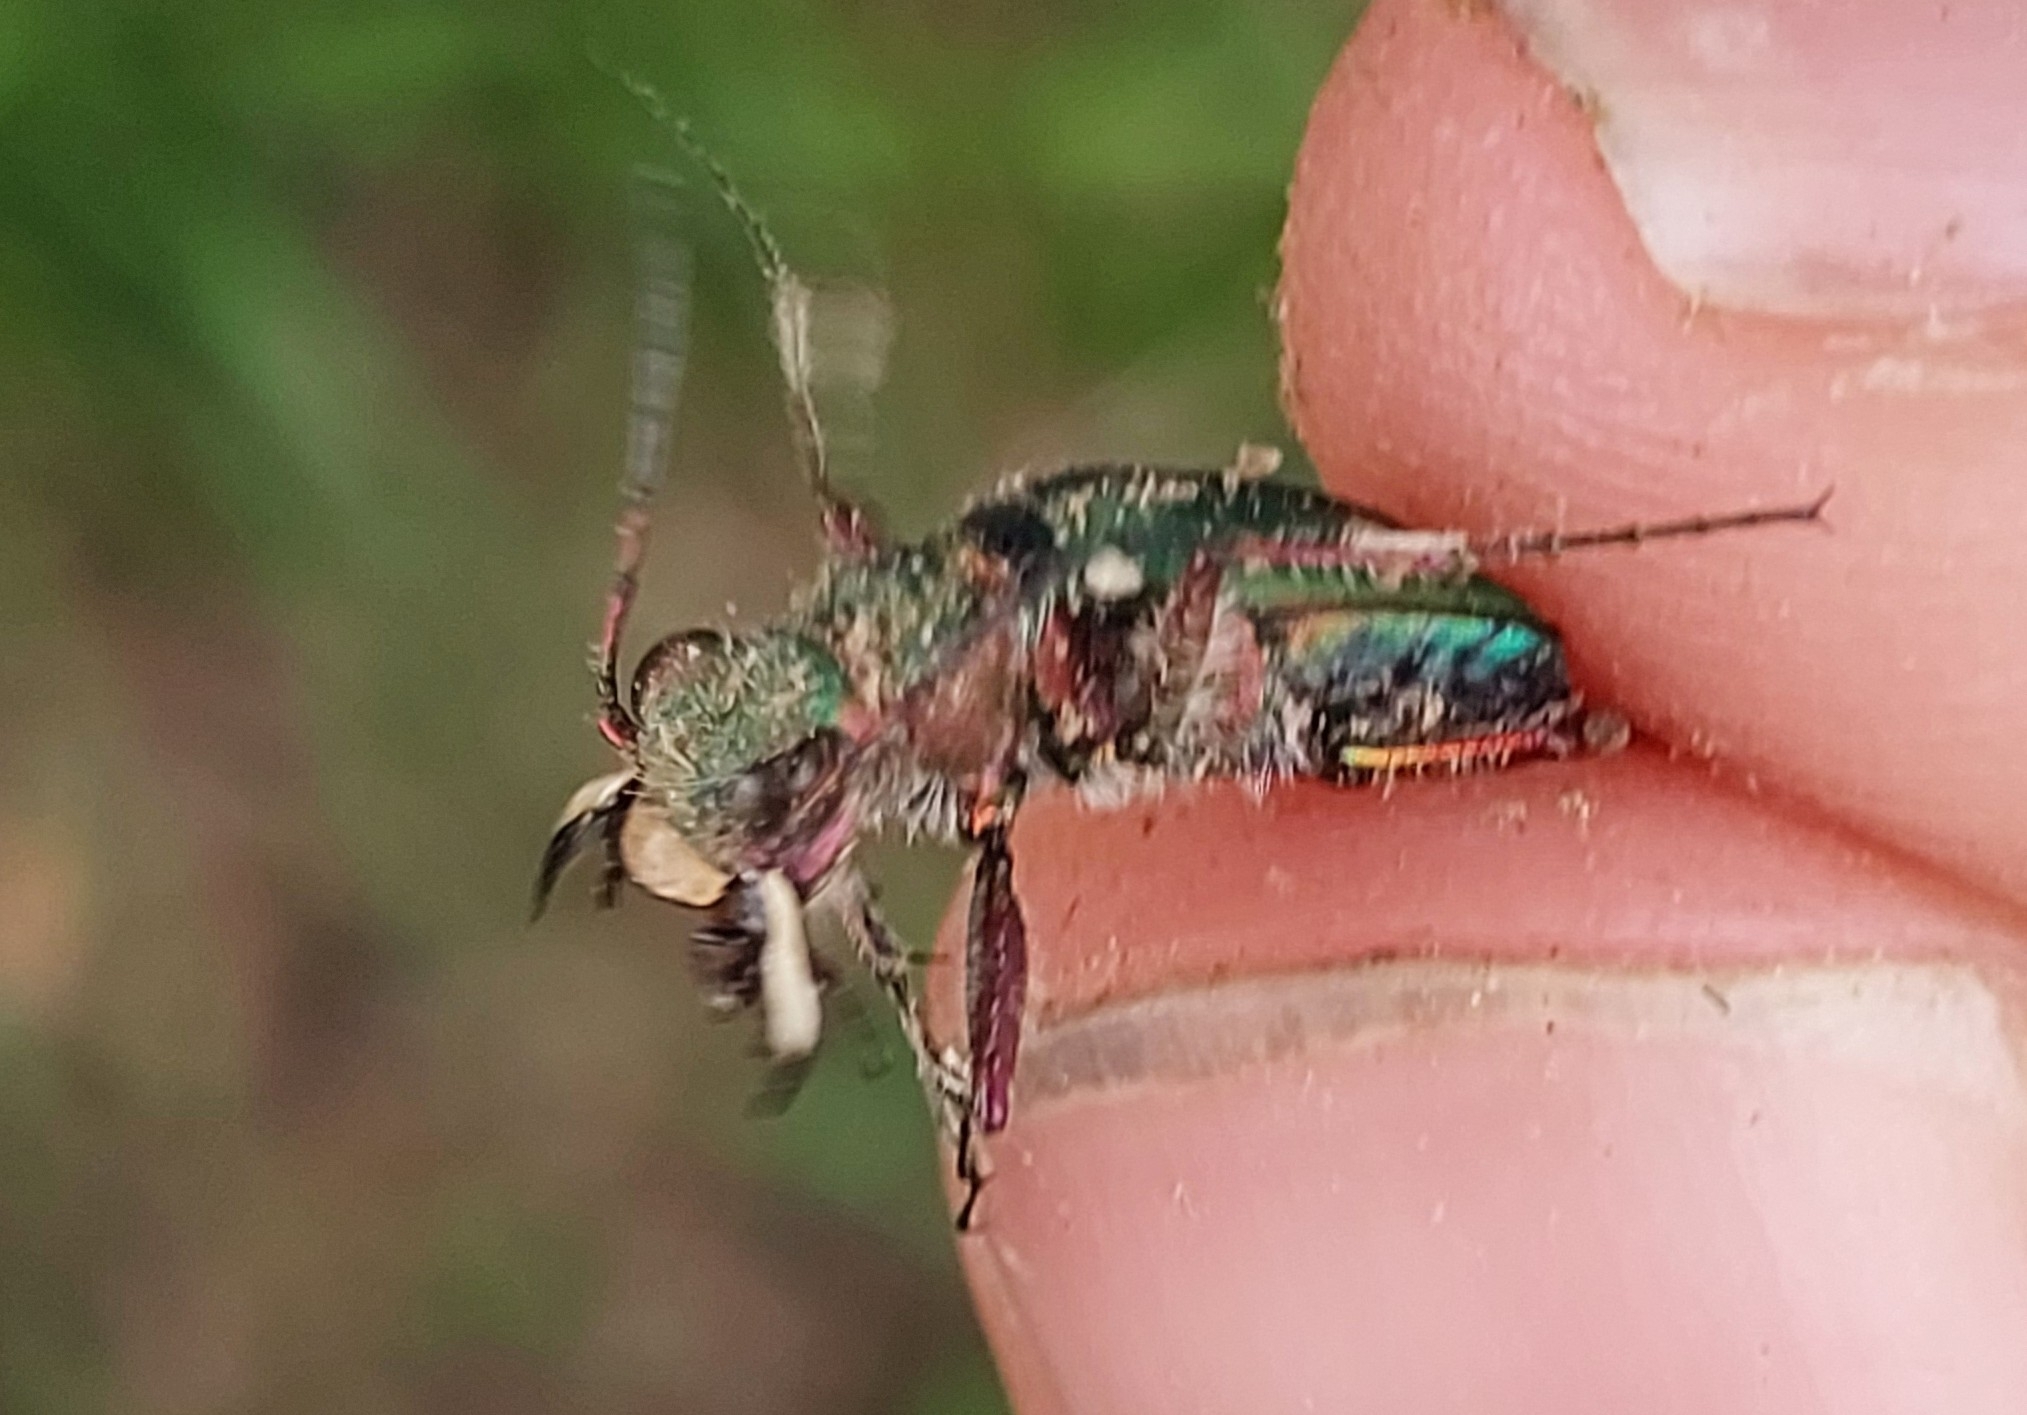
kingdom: Animalia
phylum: Arthropoda
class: Insecta
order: Coleoptera
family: Carabidae
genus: Cicindela
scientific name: Cicindela campestris
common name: Common tiger beetle
